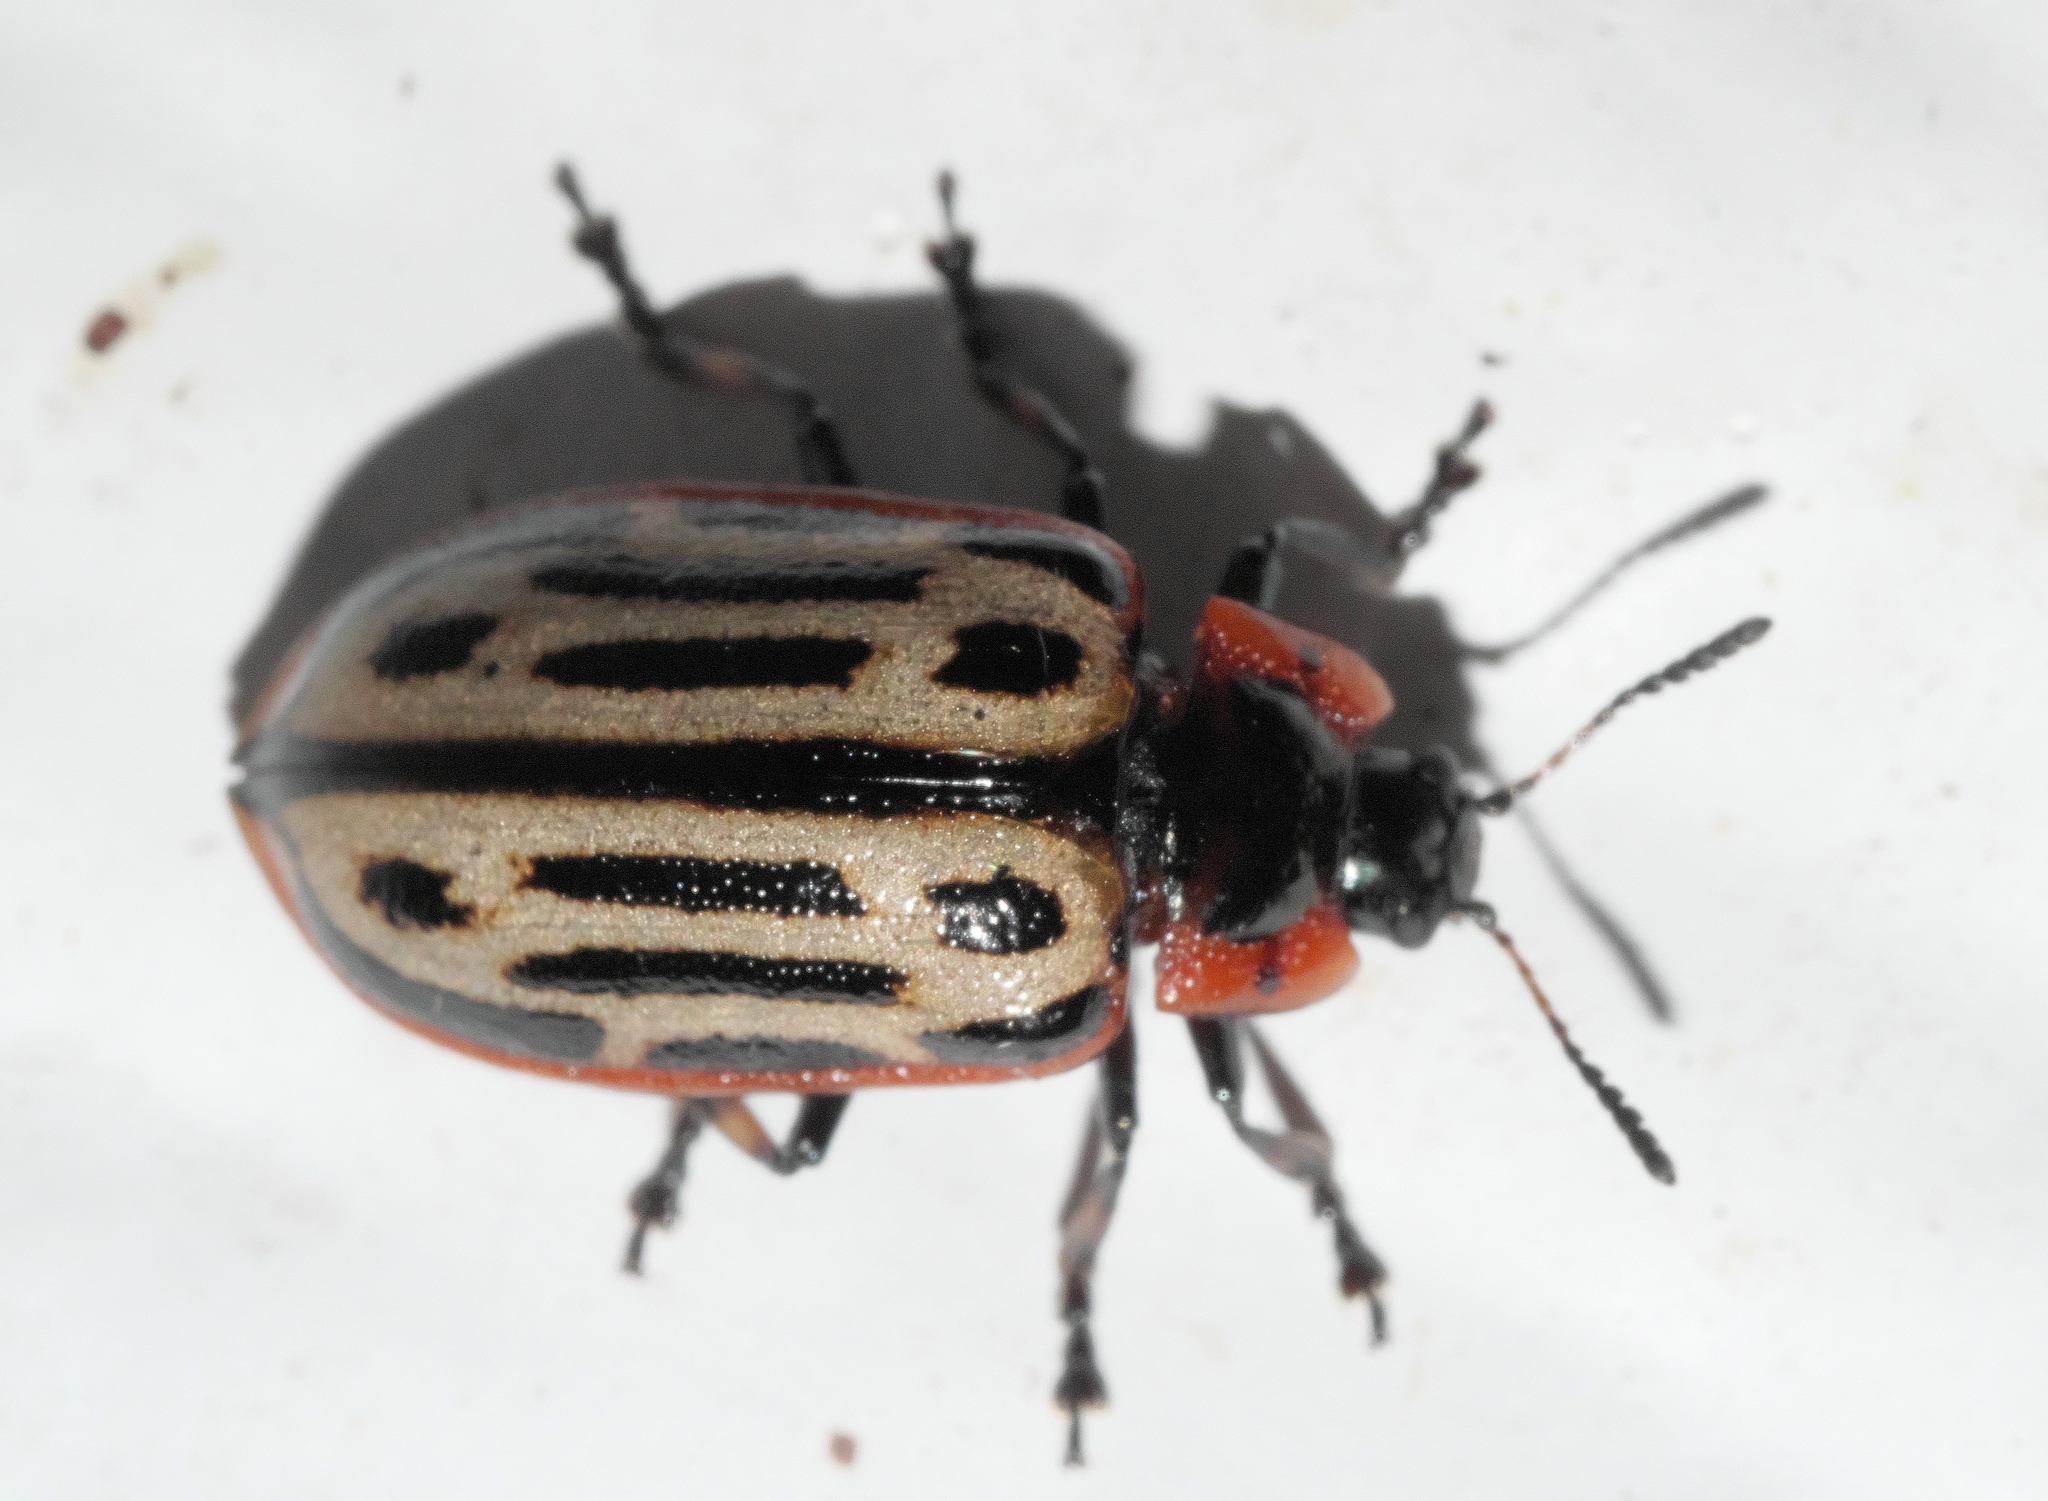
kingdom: Animalia
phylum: Arthropoda
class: Insecta
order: Coleoptera
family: Chrysomelidae
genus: Aethiopocassis
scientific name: Aethiopocassis scripta
